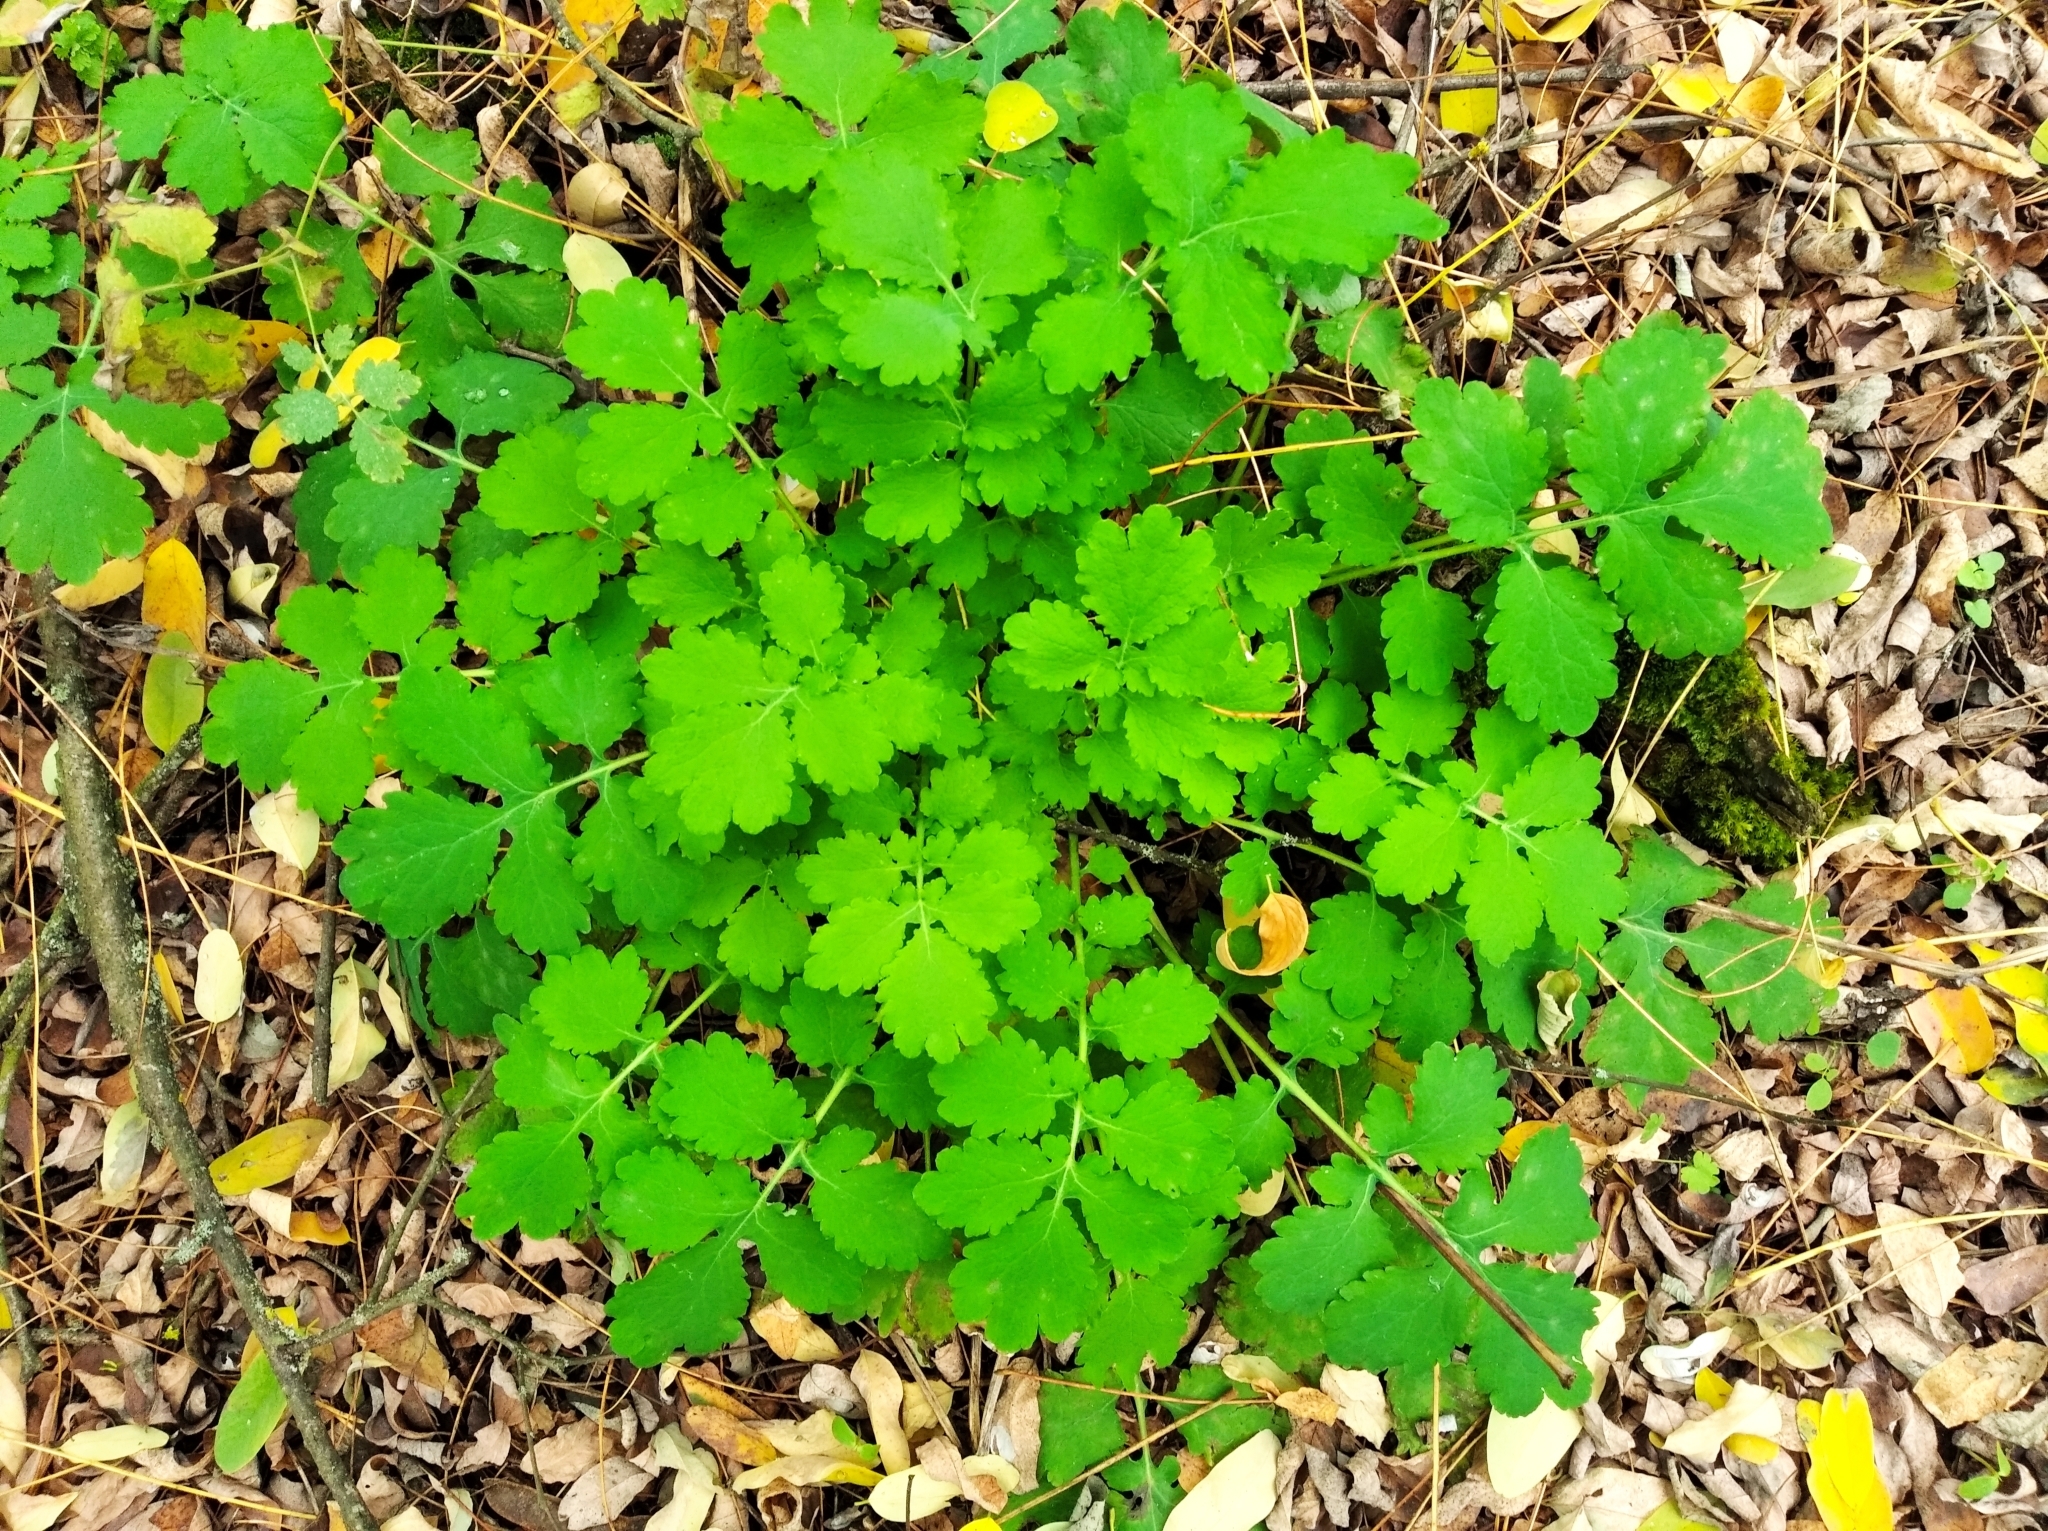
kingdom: Plantae
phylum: Tracheophyta
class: Magnoliopsida
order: Ranunculales
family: Papaveraceae
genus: Chelidonium
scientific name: Chelidonium majus
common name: Greater celandine
